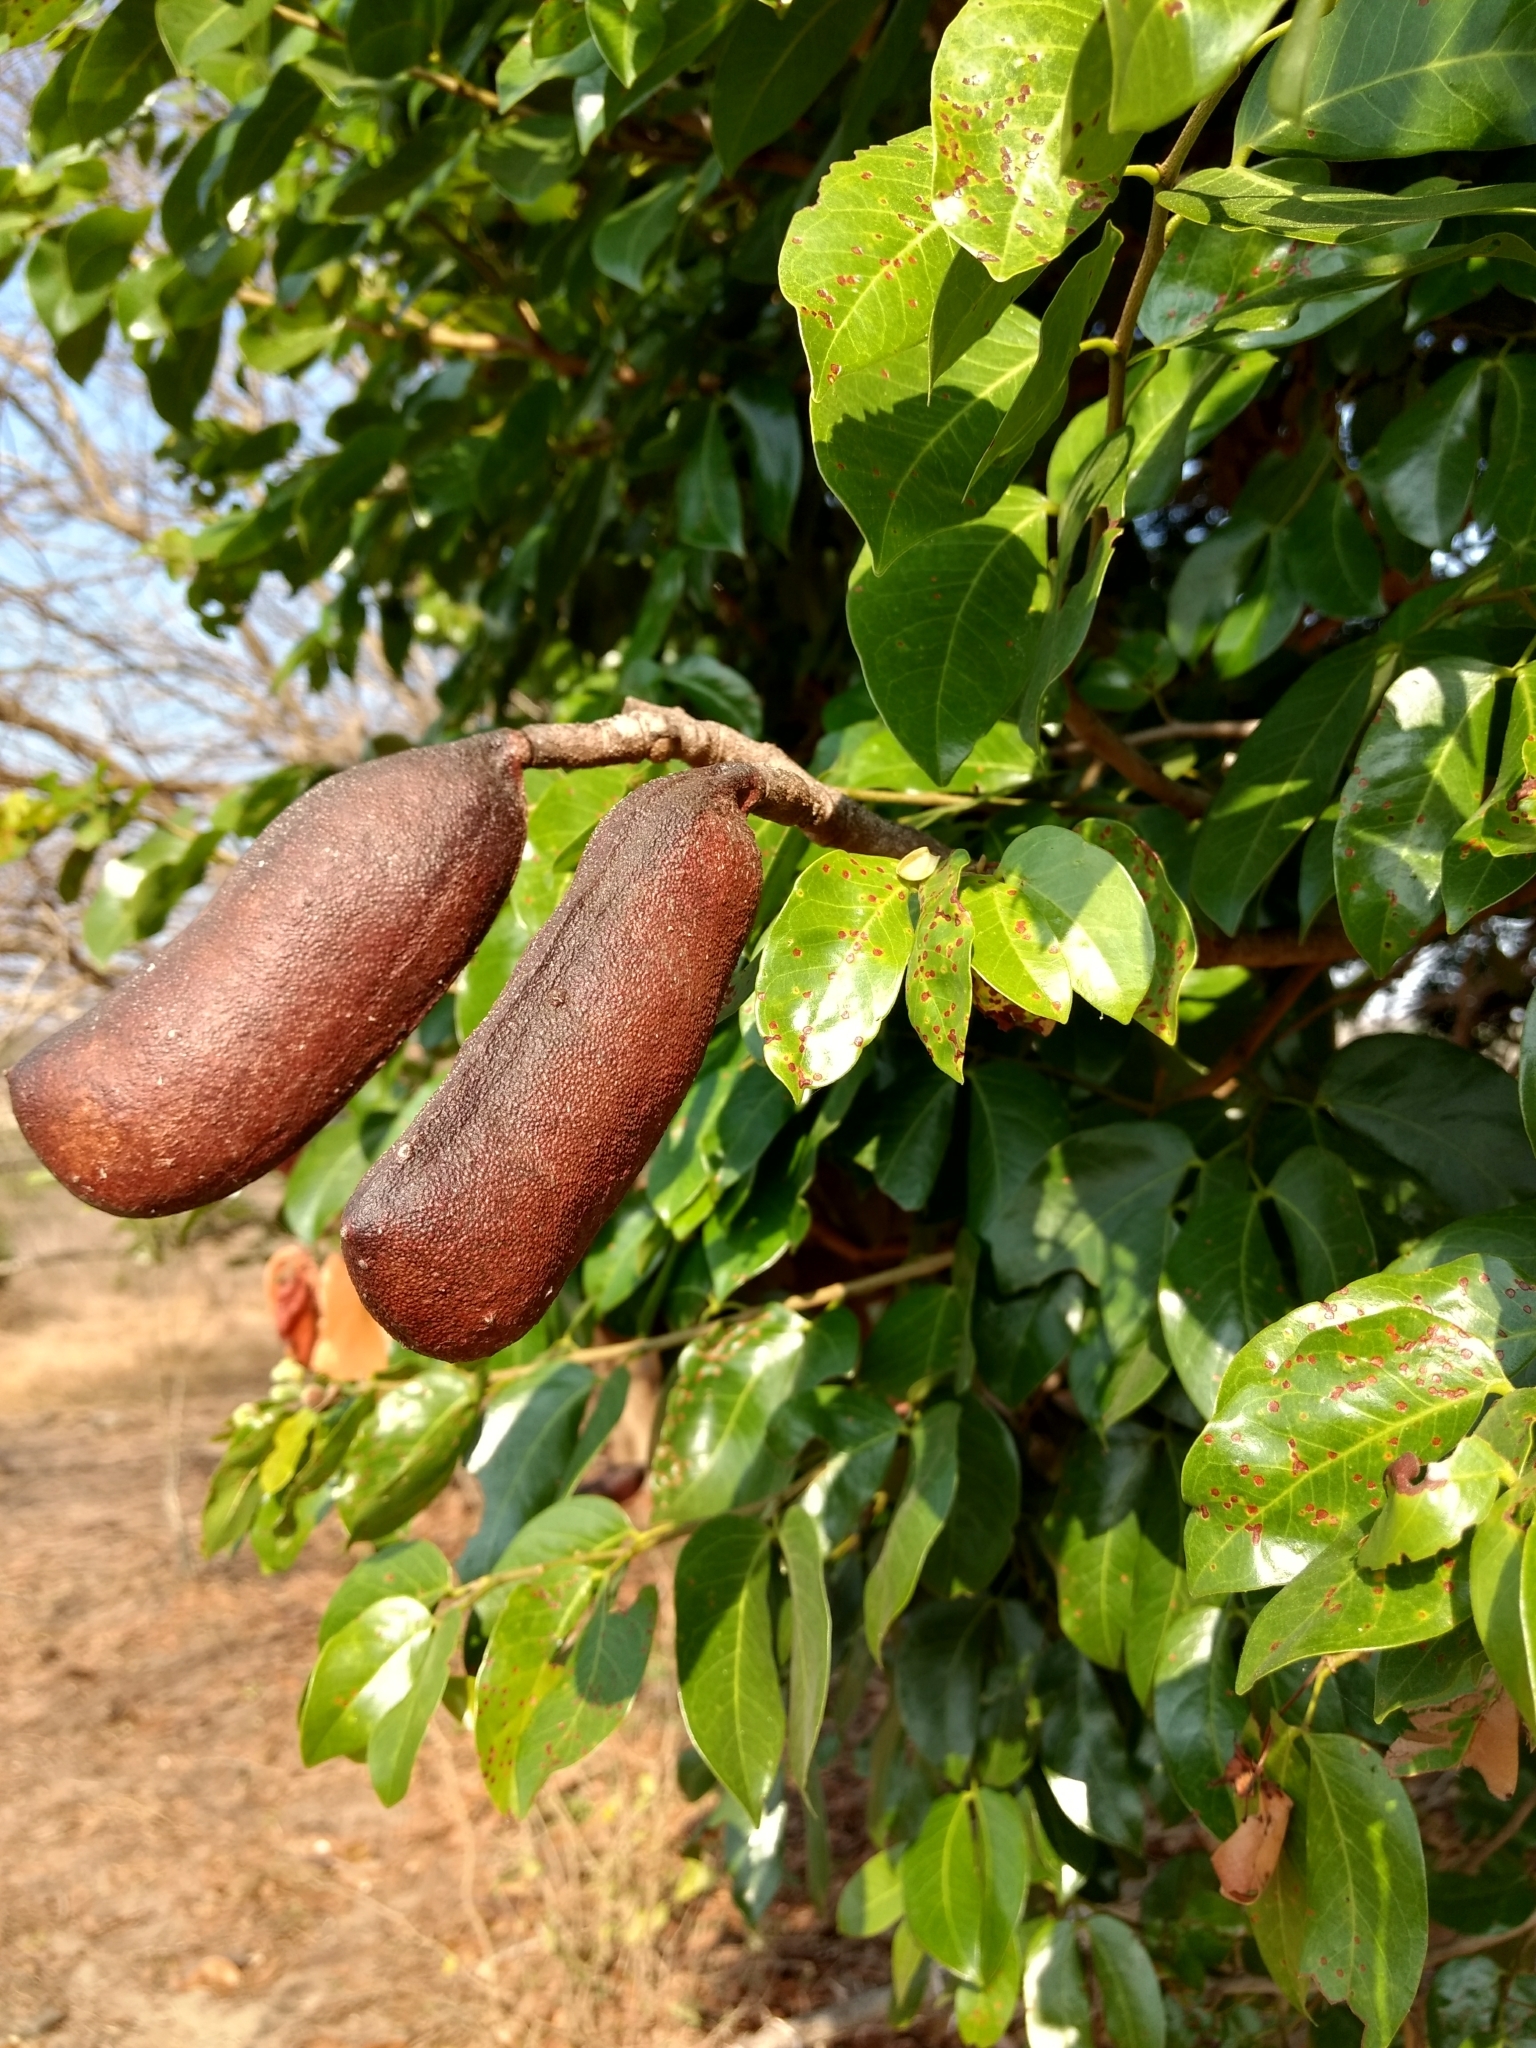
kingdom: Plantae
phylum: Tracheophyta
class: Magnoliopsida
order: Fabales
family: Fabaceae
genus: Hymenaea
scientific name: Hymenaea courbaril
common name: Brazilian copal
